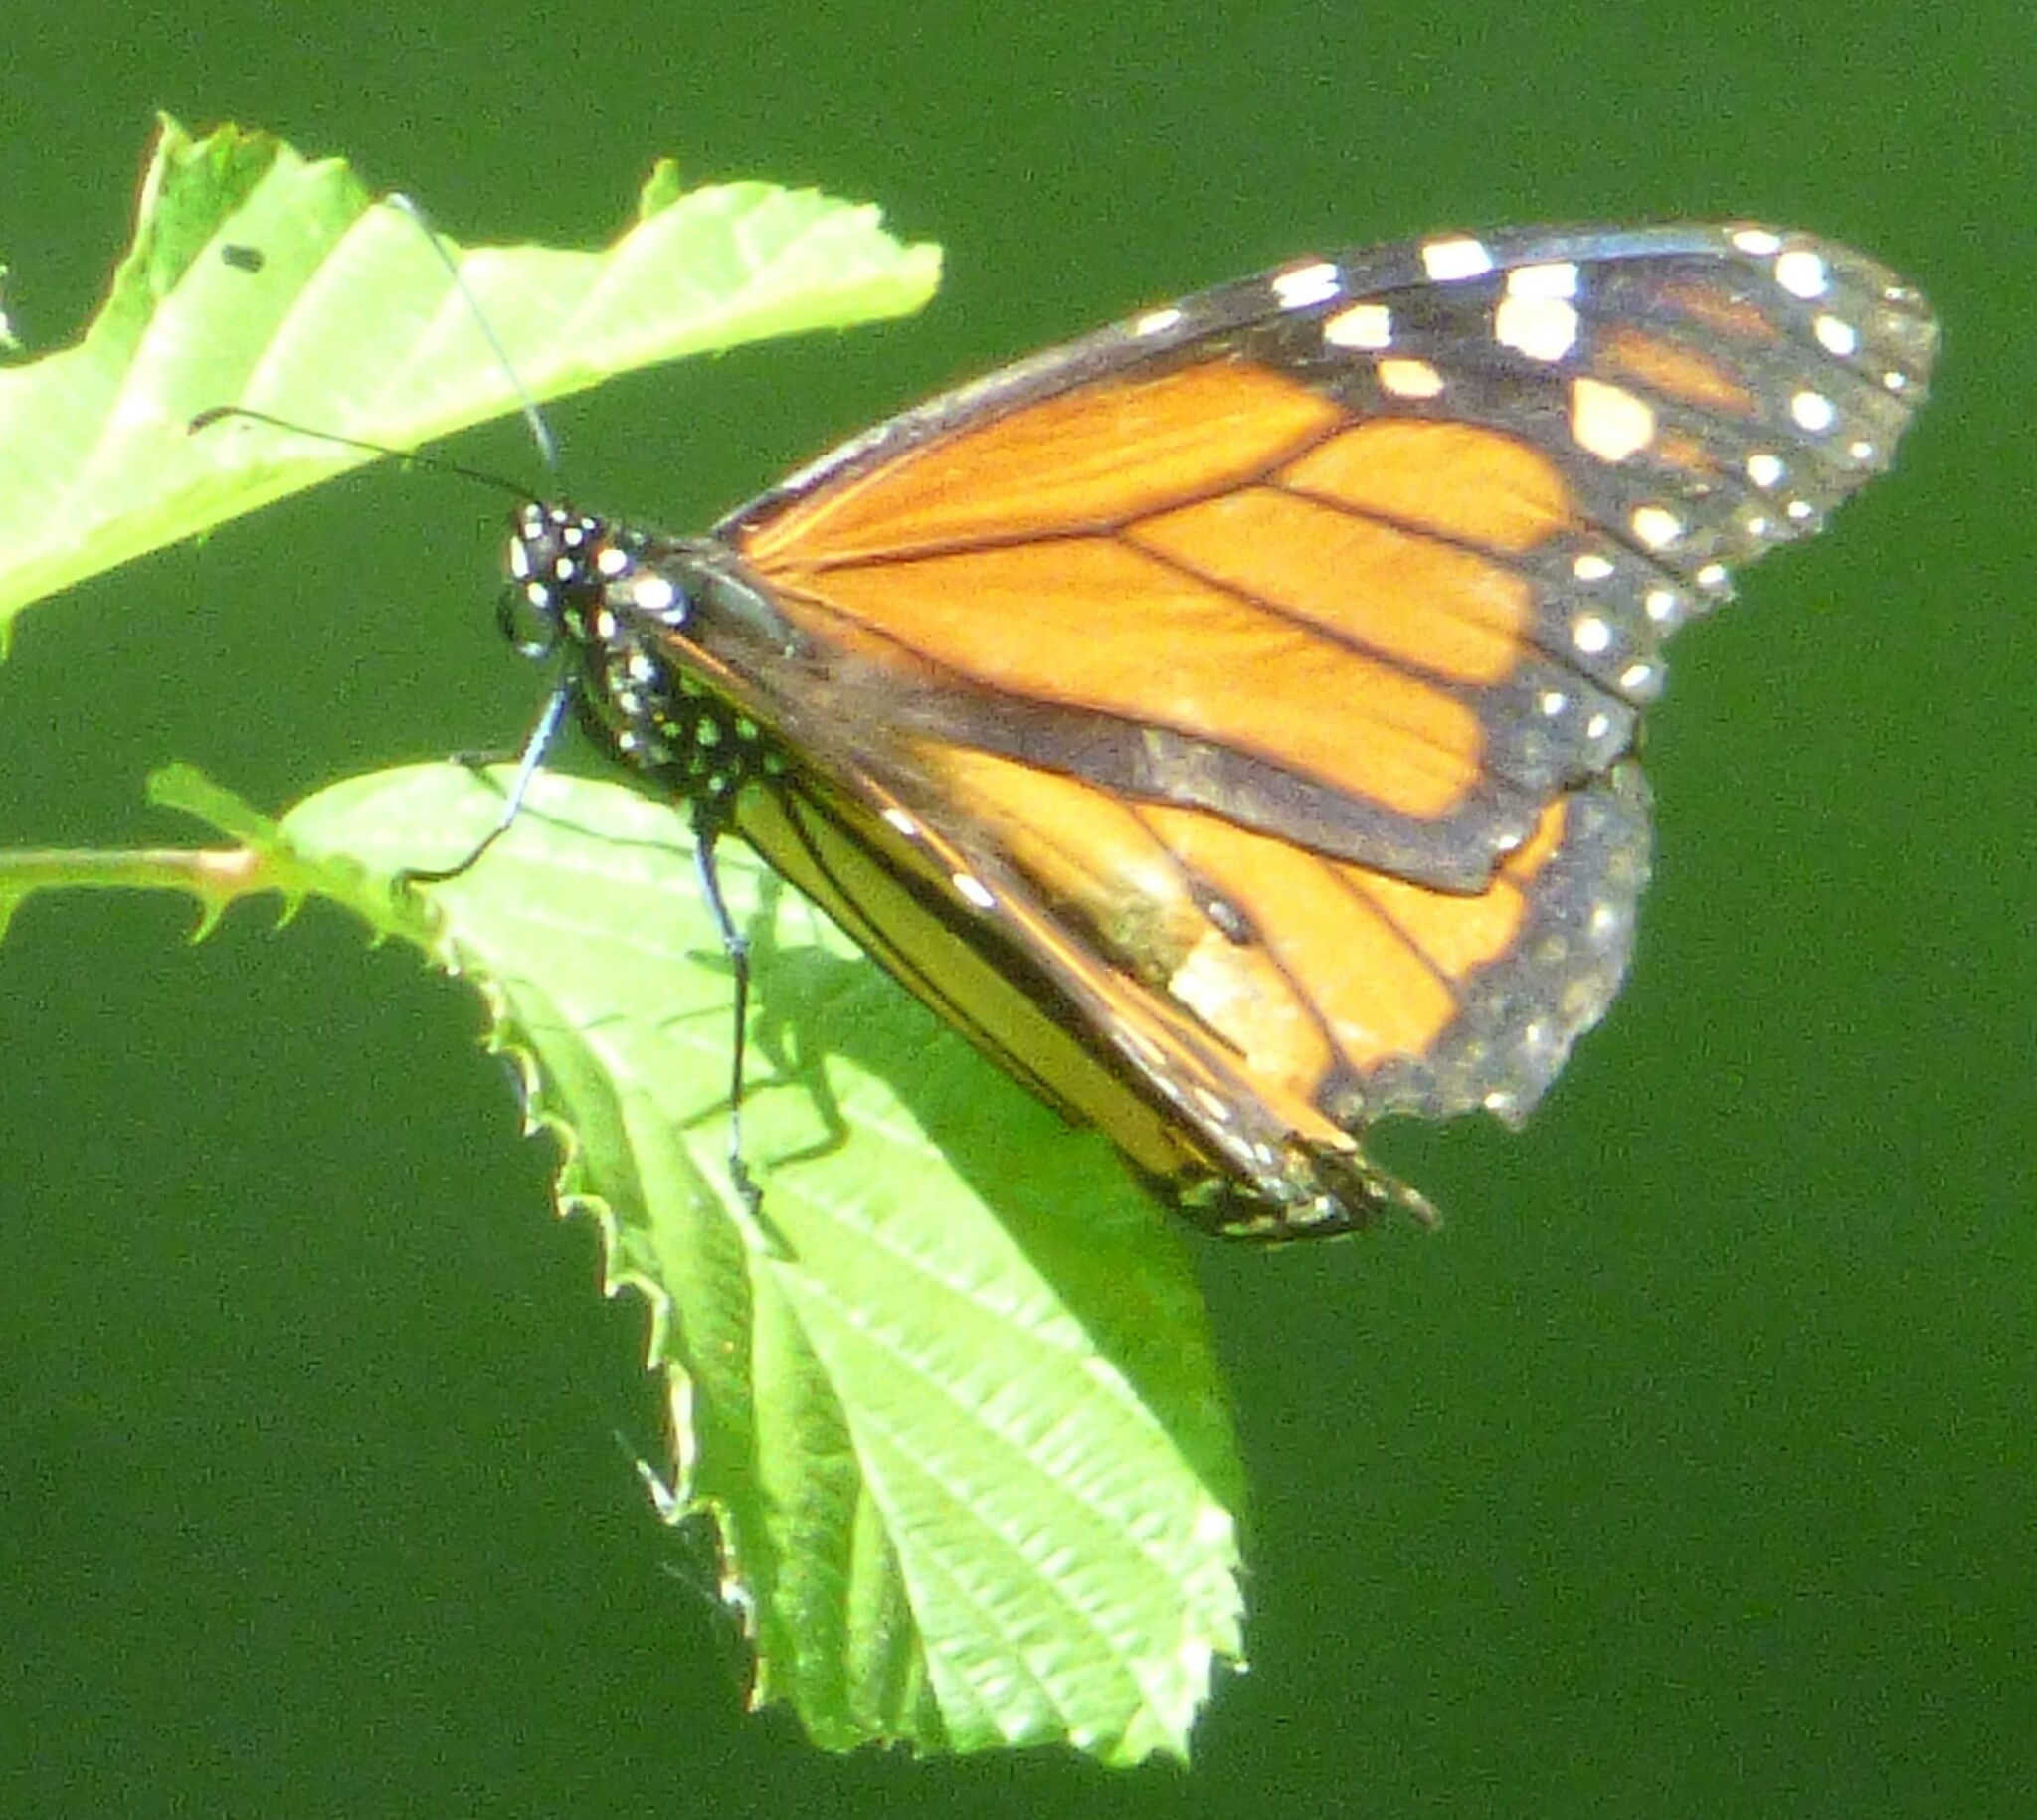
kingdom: Animalia
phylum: Arthropoda
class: Insecta
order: Lepidoptera
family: Nymphalidae
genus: Danaus
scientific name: Danaus plexippus
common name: Monarch
